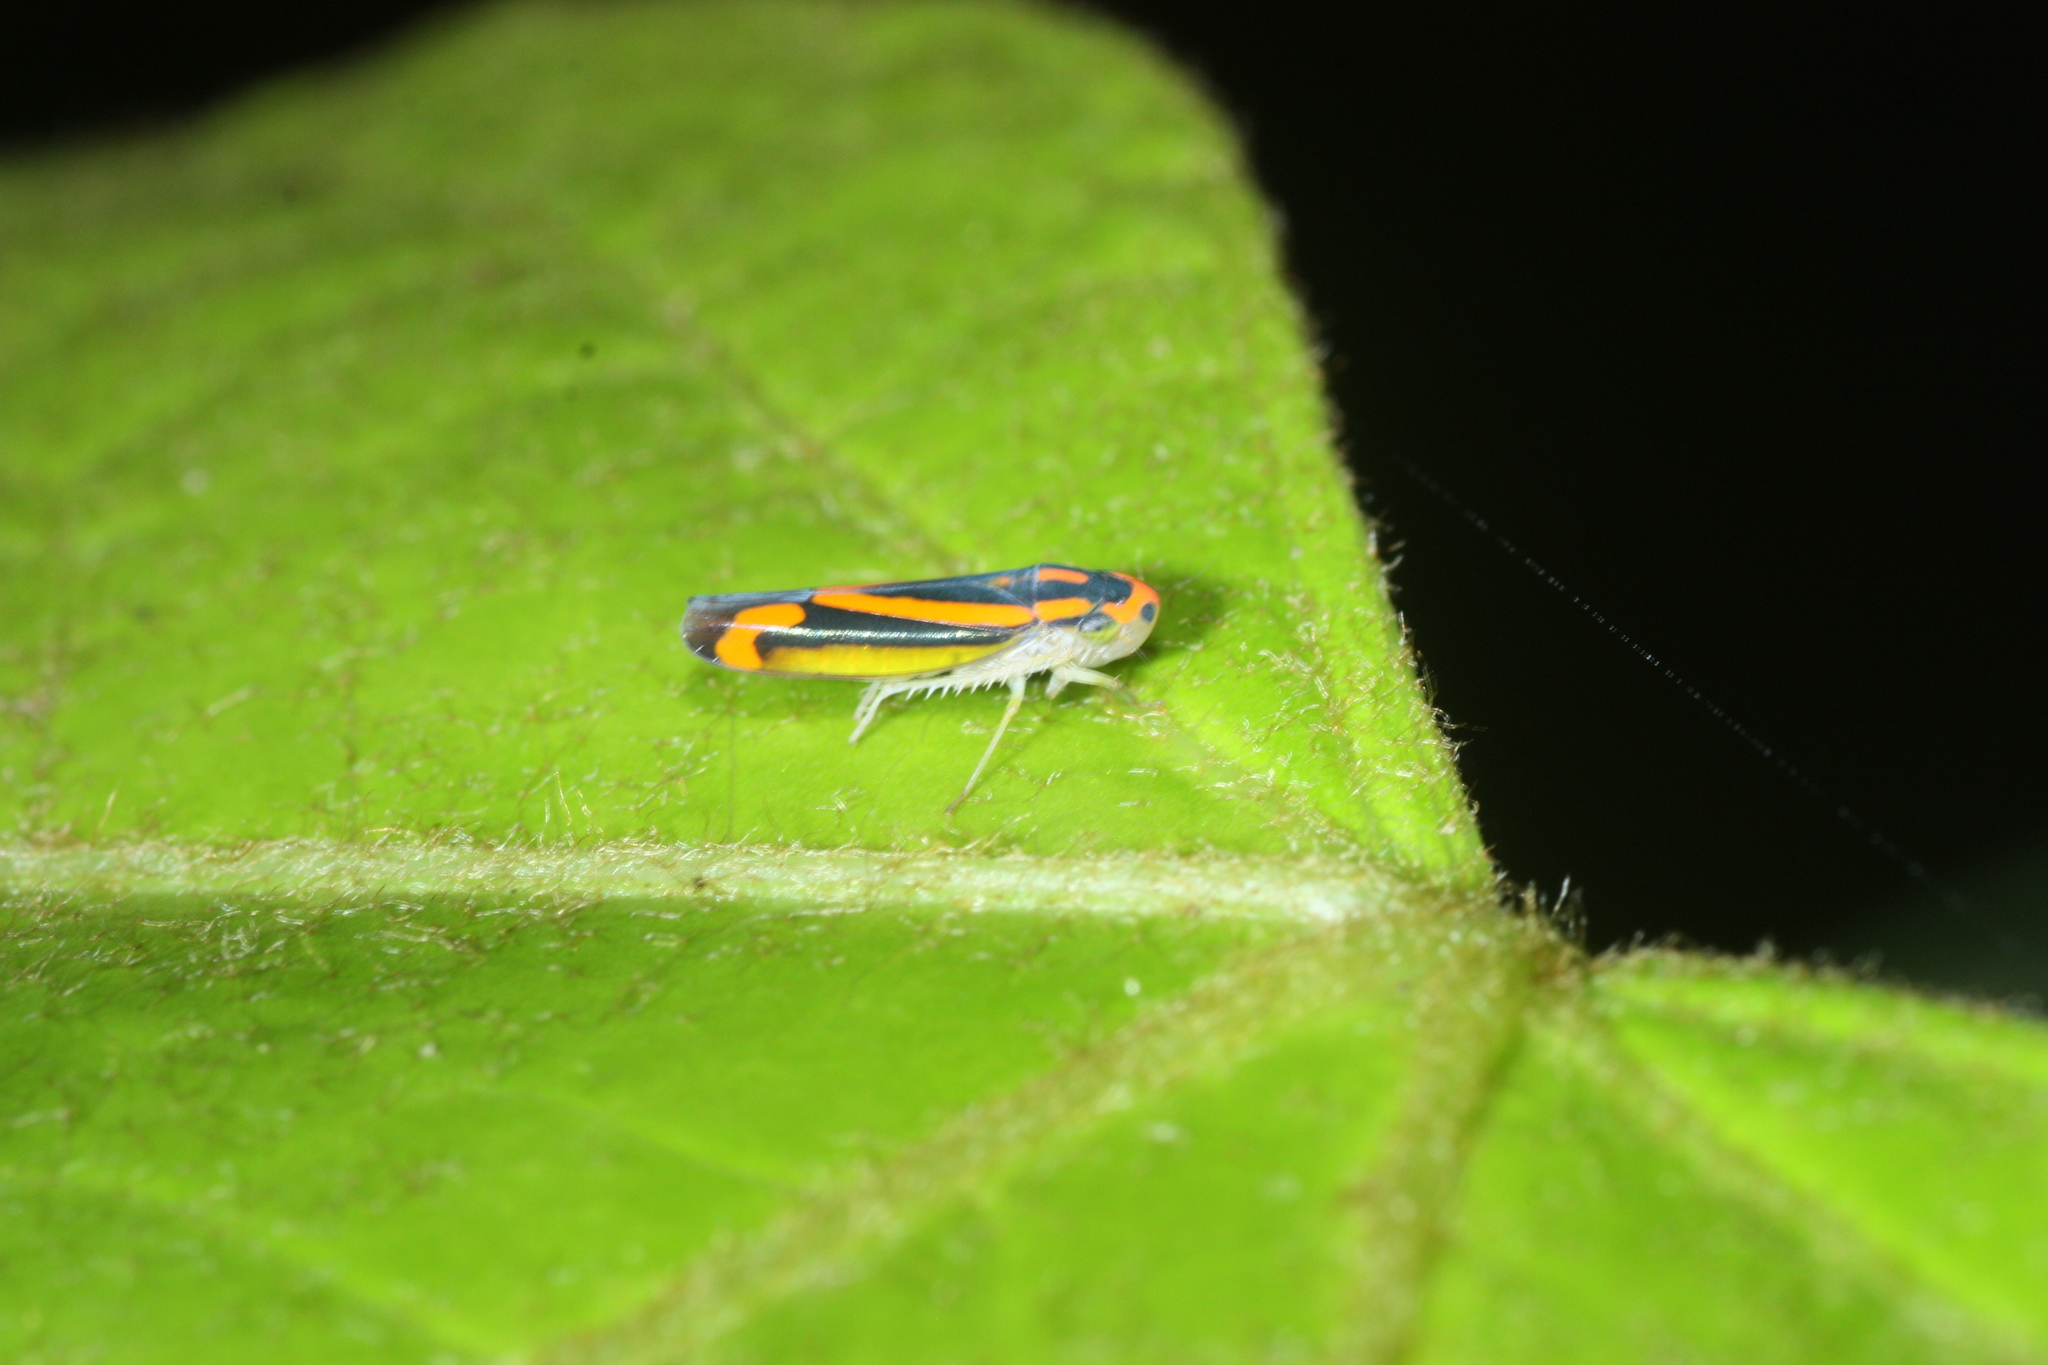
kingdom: Animalia
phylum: Arthropoda
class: Insecta
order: Hemiptera
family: Cicadellidae
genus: Soosiulus
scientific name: Soosiulus salutaris
